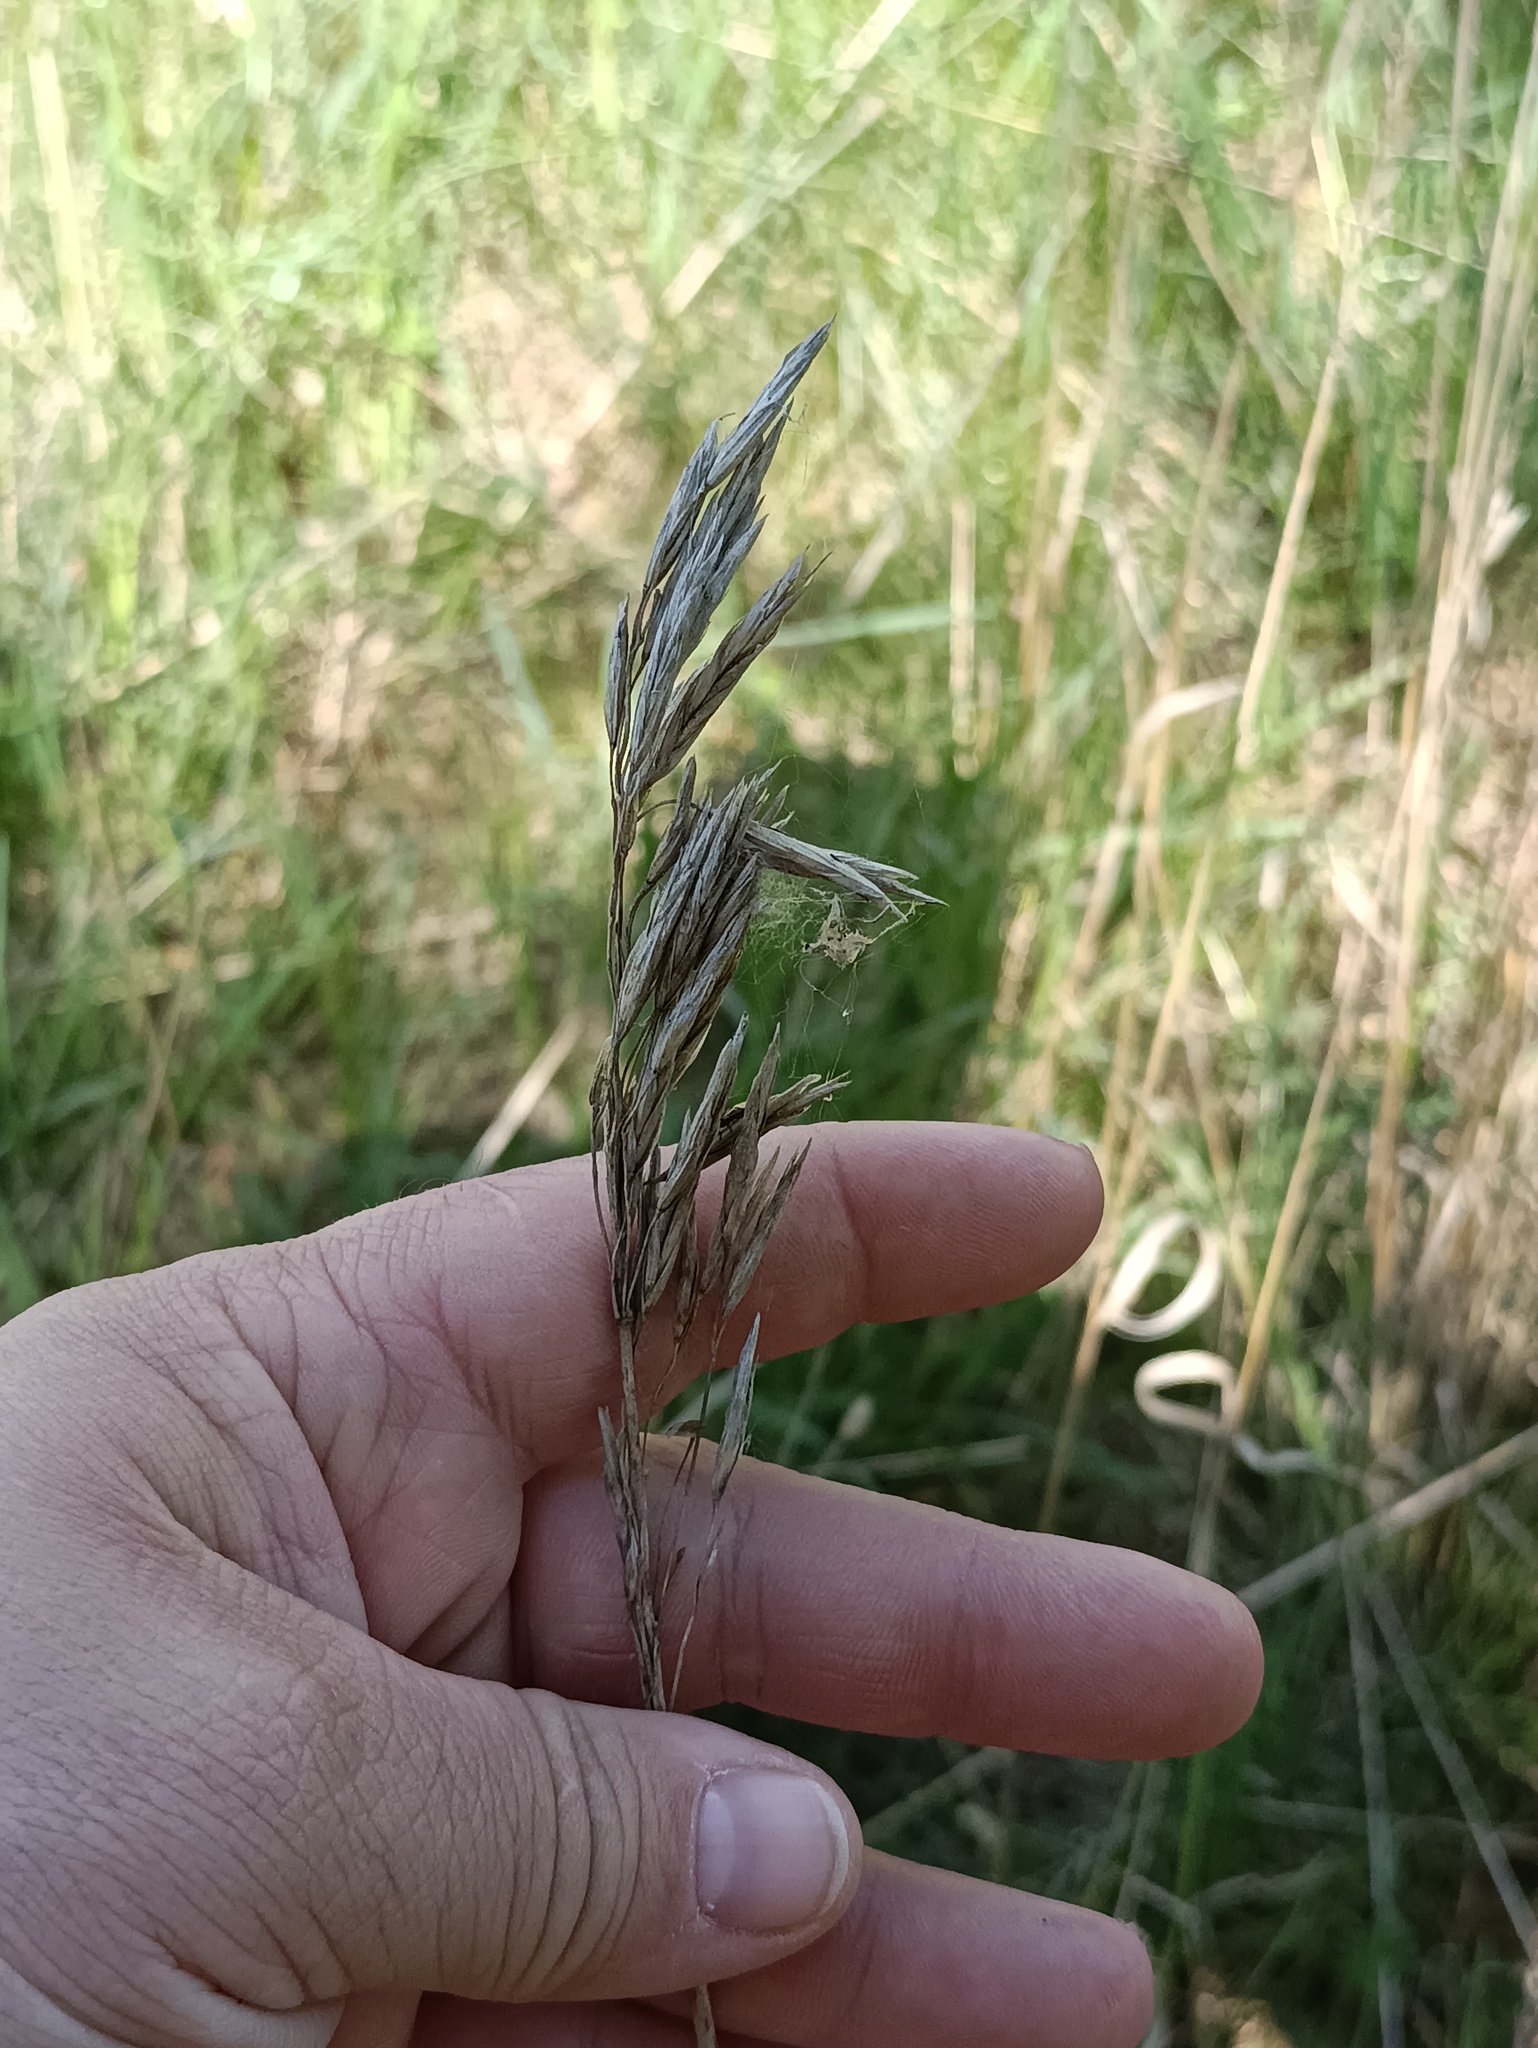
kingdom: Plantae
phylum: Tracheophyta
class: Liliopsida
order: Poales
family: Poaceae
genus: Bromus
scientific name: Bromus inermis
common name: Smooth brome
